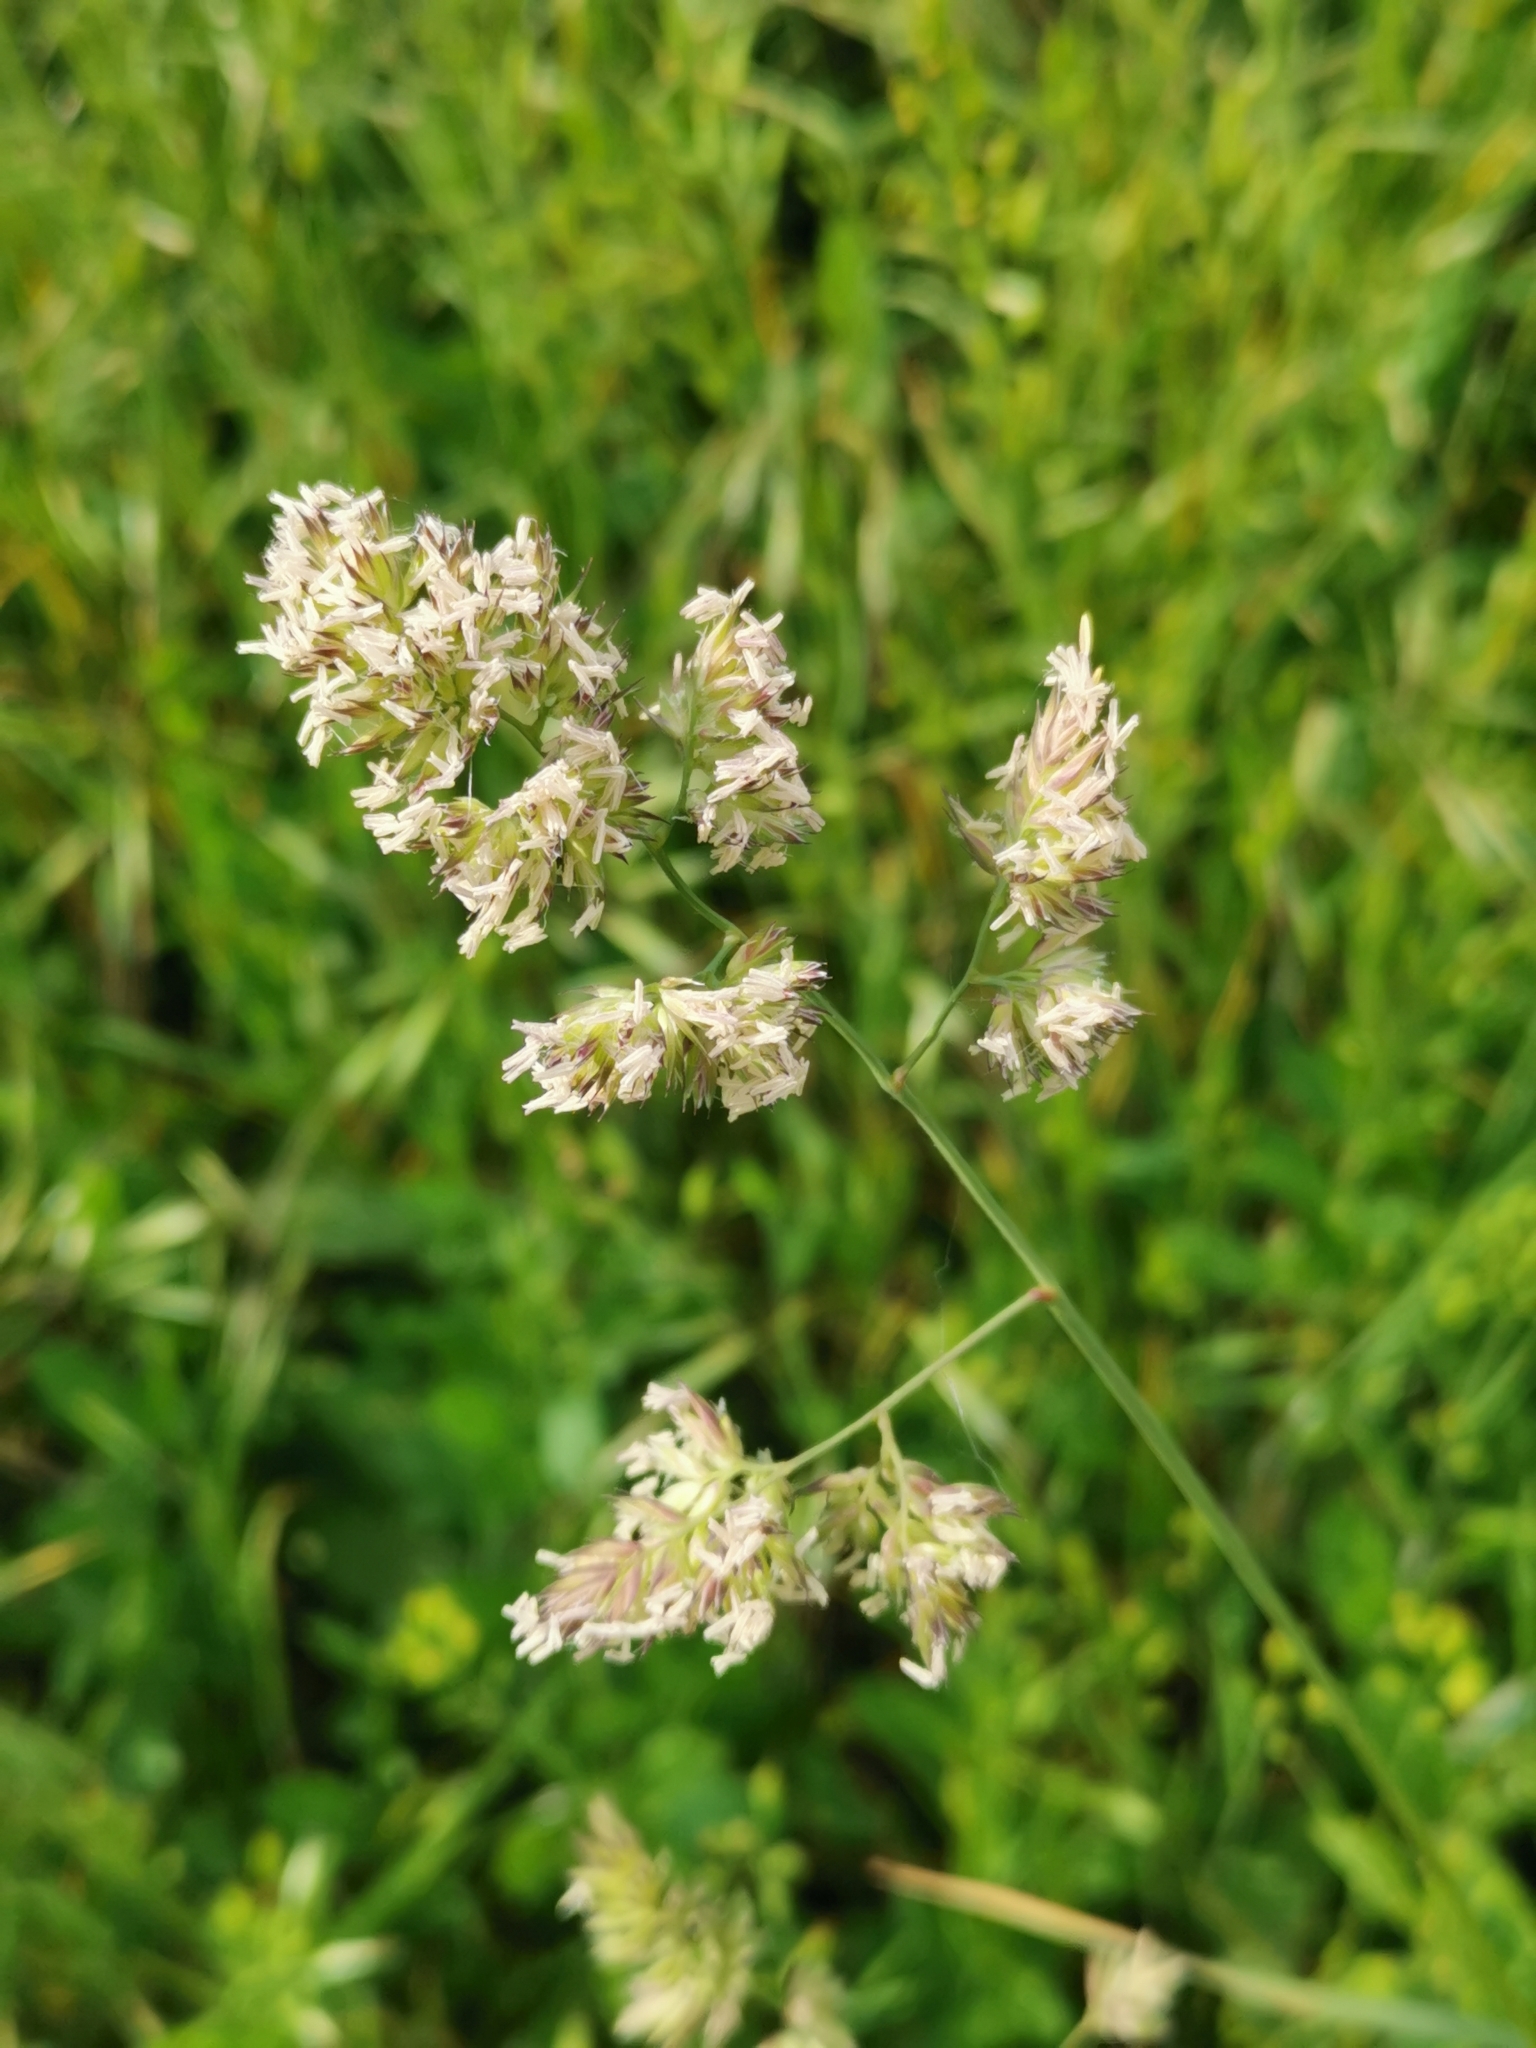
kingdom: Plantae
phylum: Tracheophyta
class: Liliopsida
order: Poales
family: Poaceae
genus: Dactylis
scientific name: Dactylis glomerata
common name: Orchardgrass
